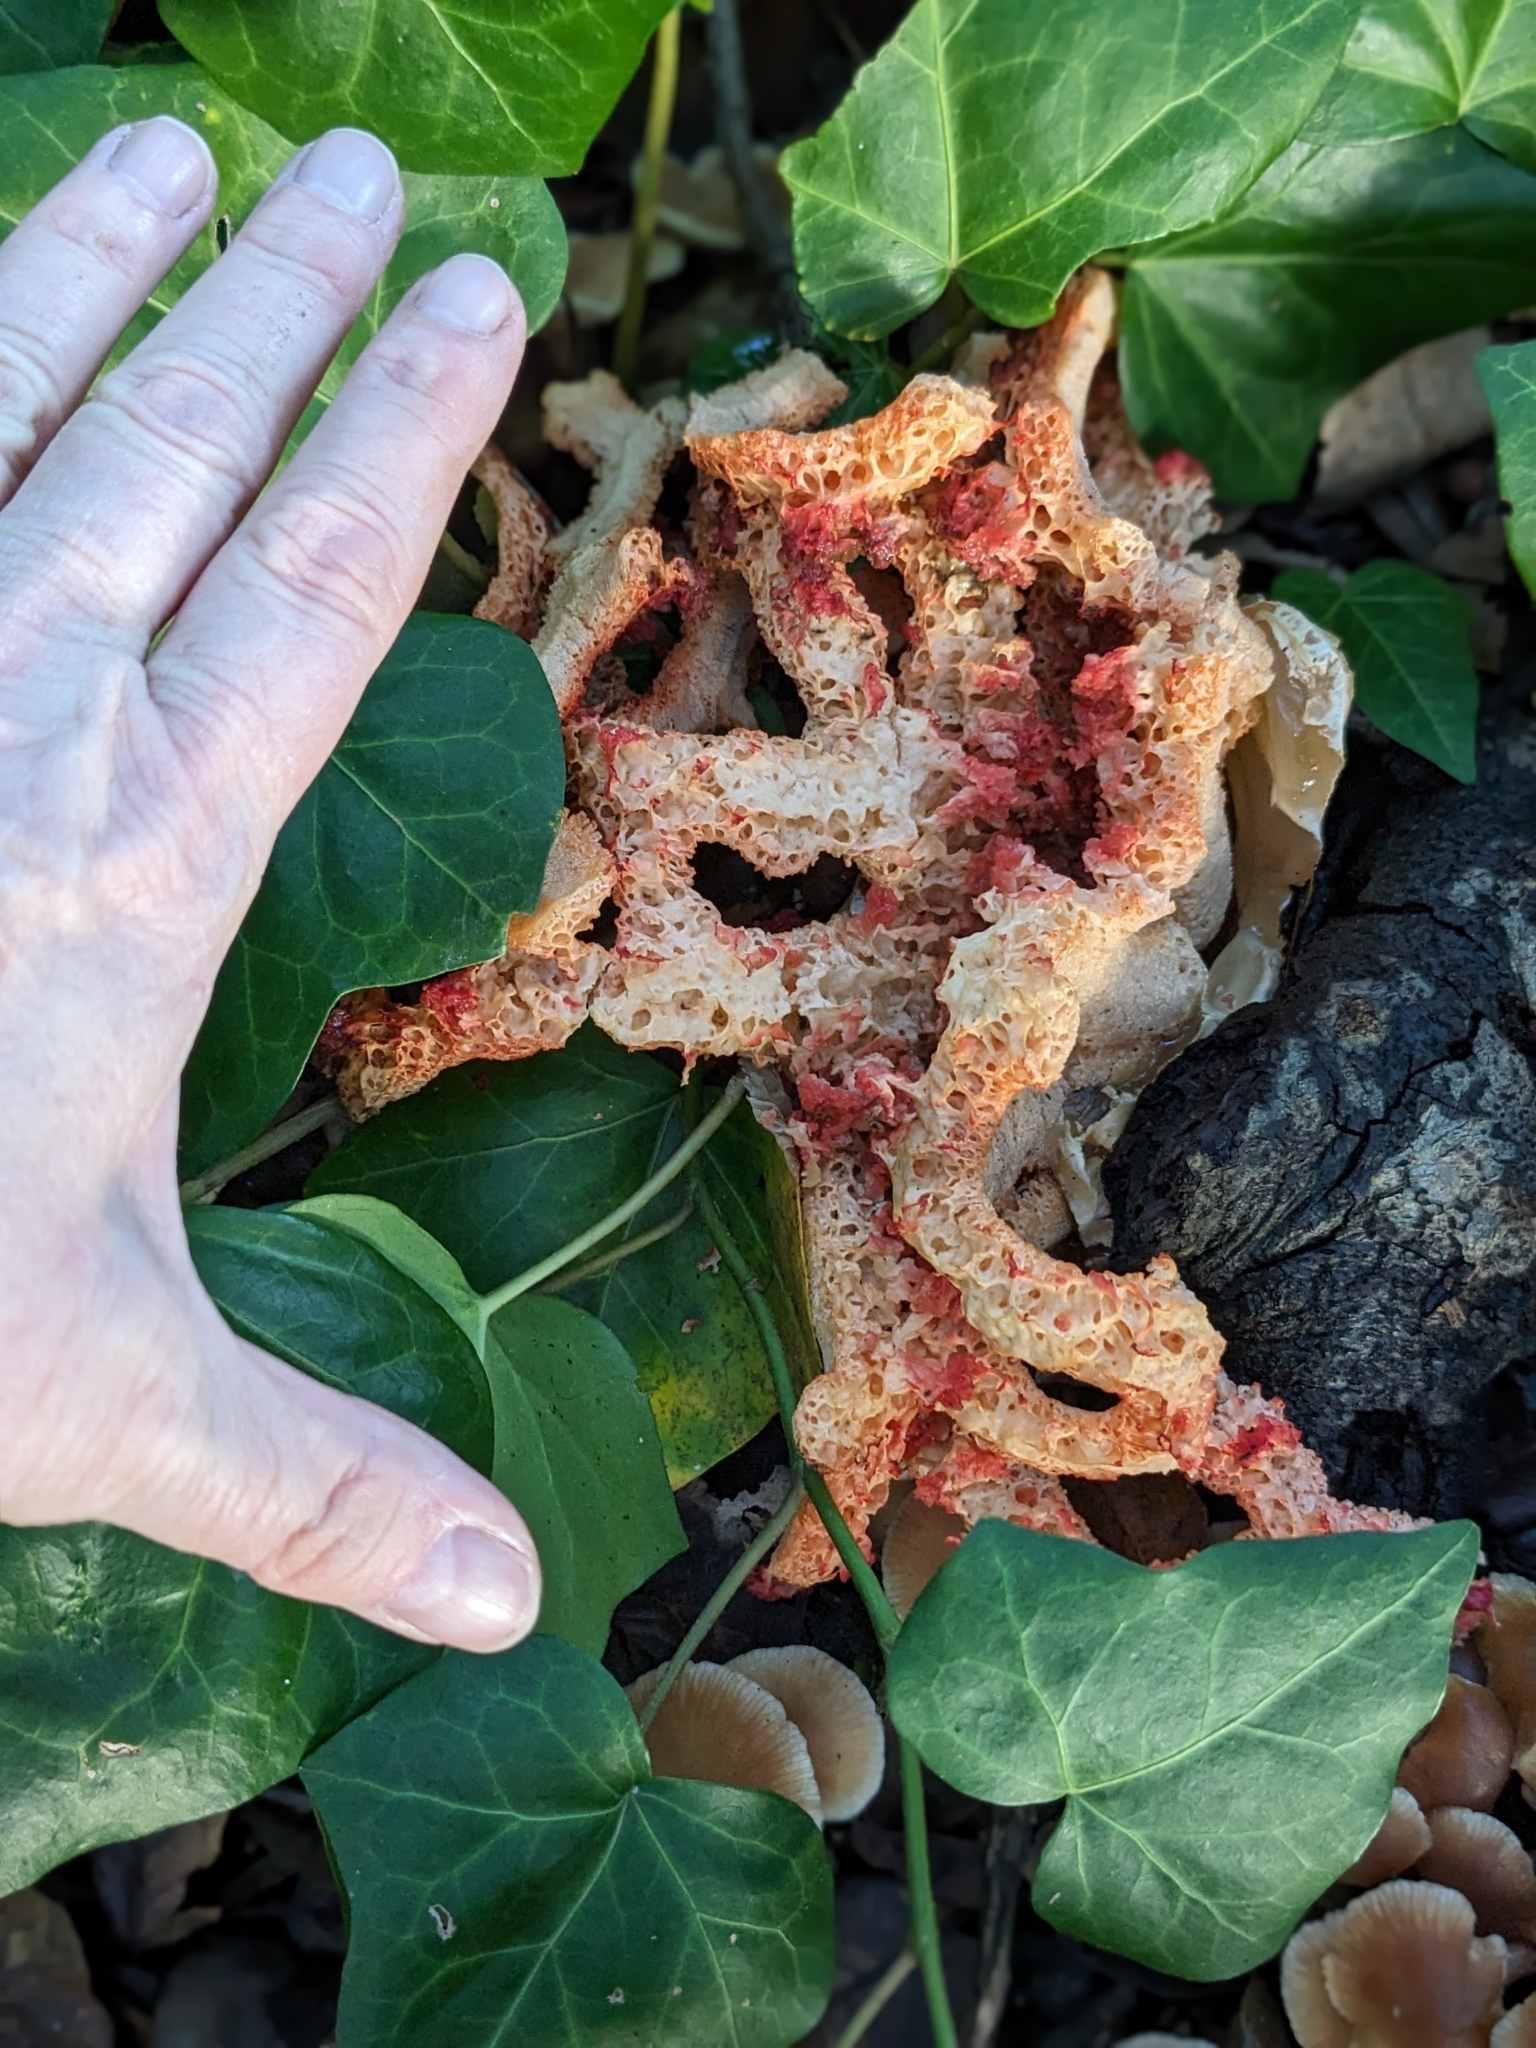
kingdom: Fungi
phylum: Basidiomycota
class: Agaricomycetes
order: Phallales
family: Phallaceae
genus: Clathrus
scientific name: Clathrus ruber
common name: Red cage
